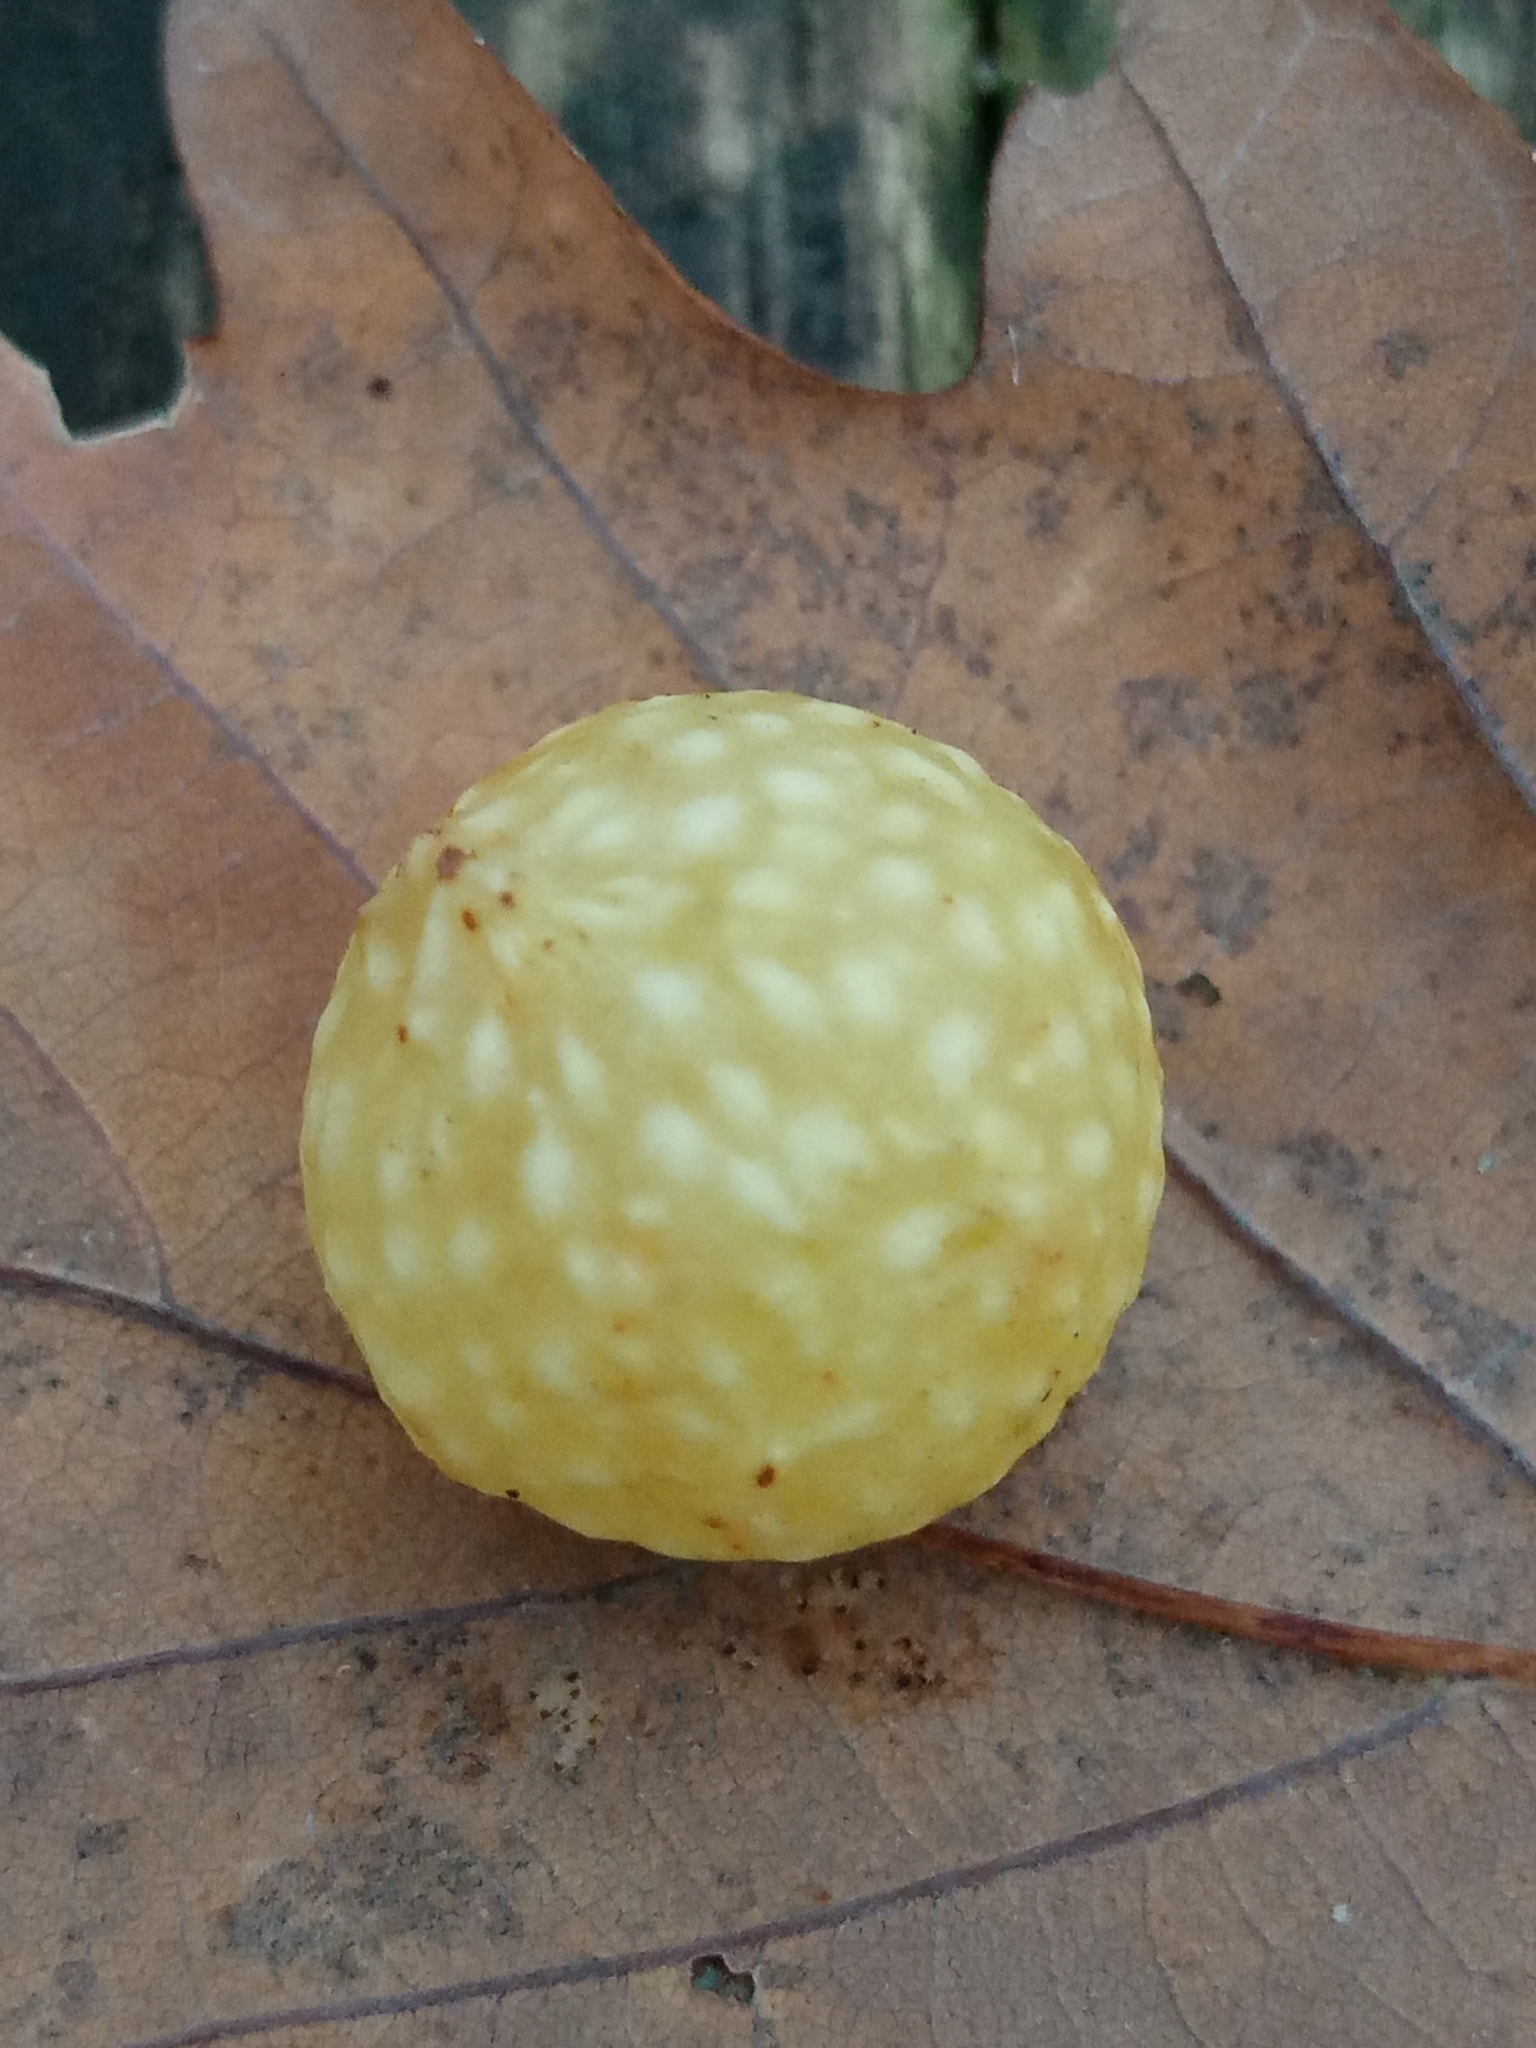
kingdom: Animalia
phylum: Arthropoda
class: Insecta
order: Hymenoptera
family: Cynipidae
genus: Cynips
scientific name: Cynips quercusfolii
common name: Cherry gall
